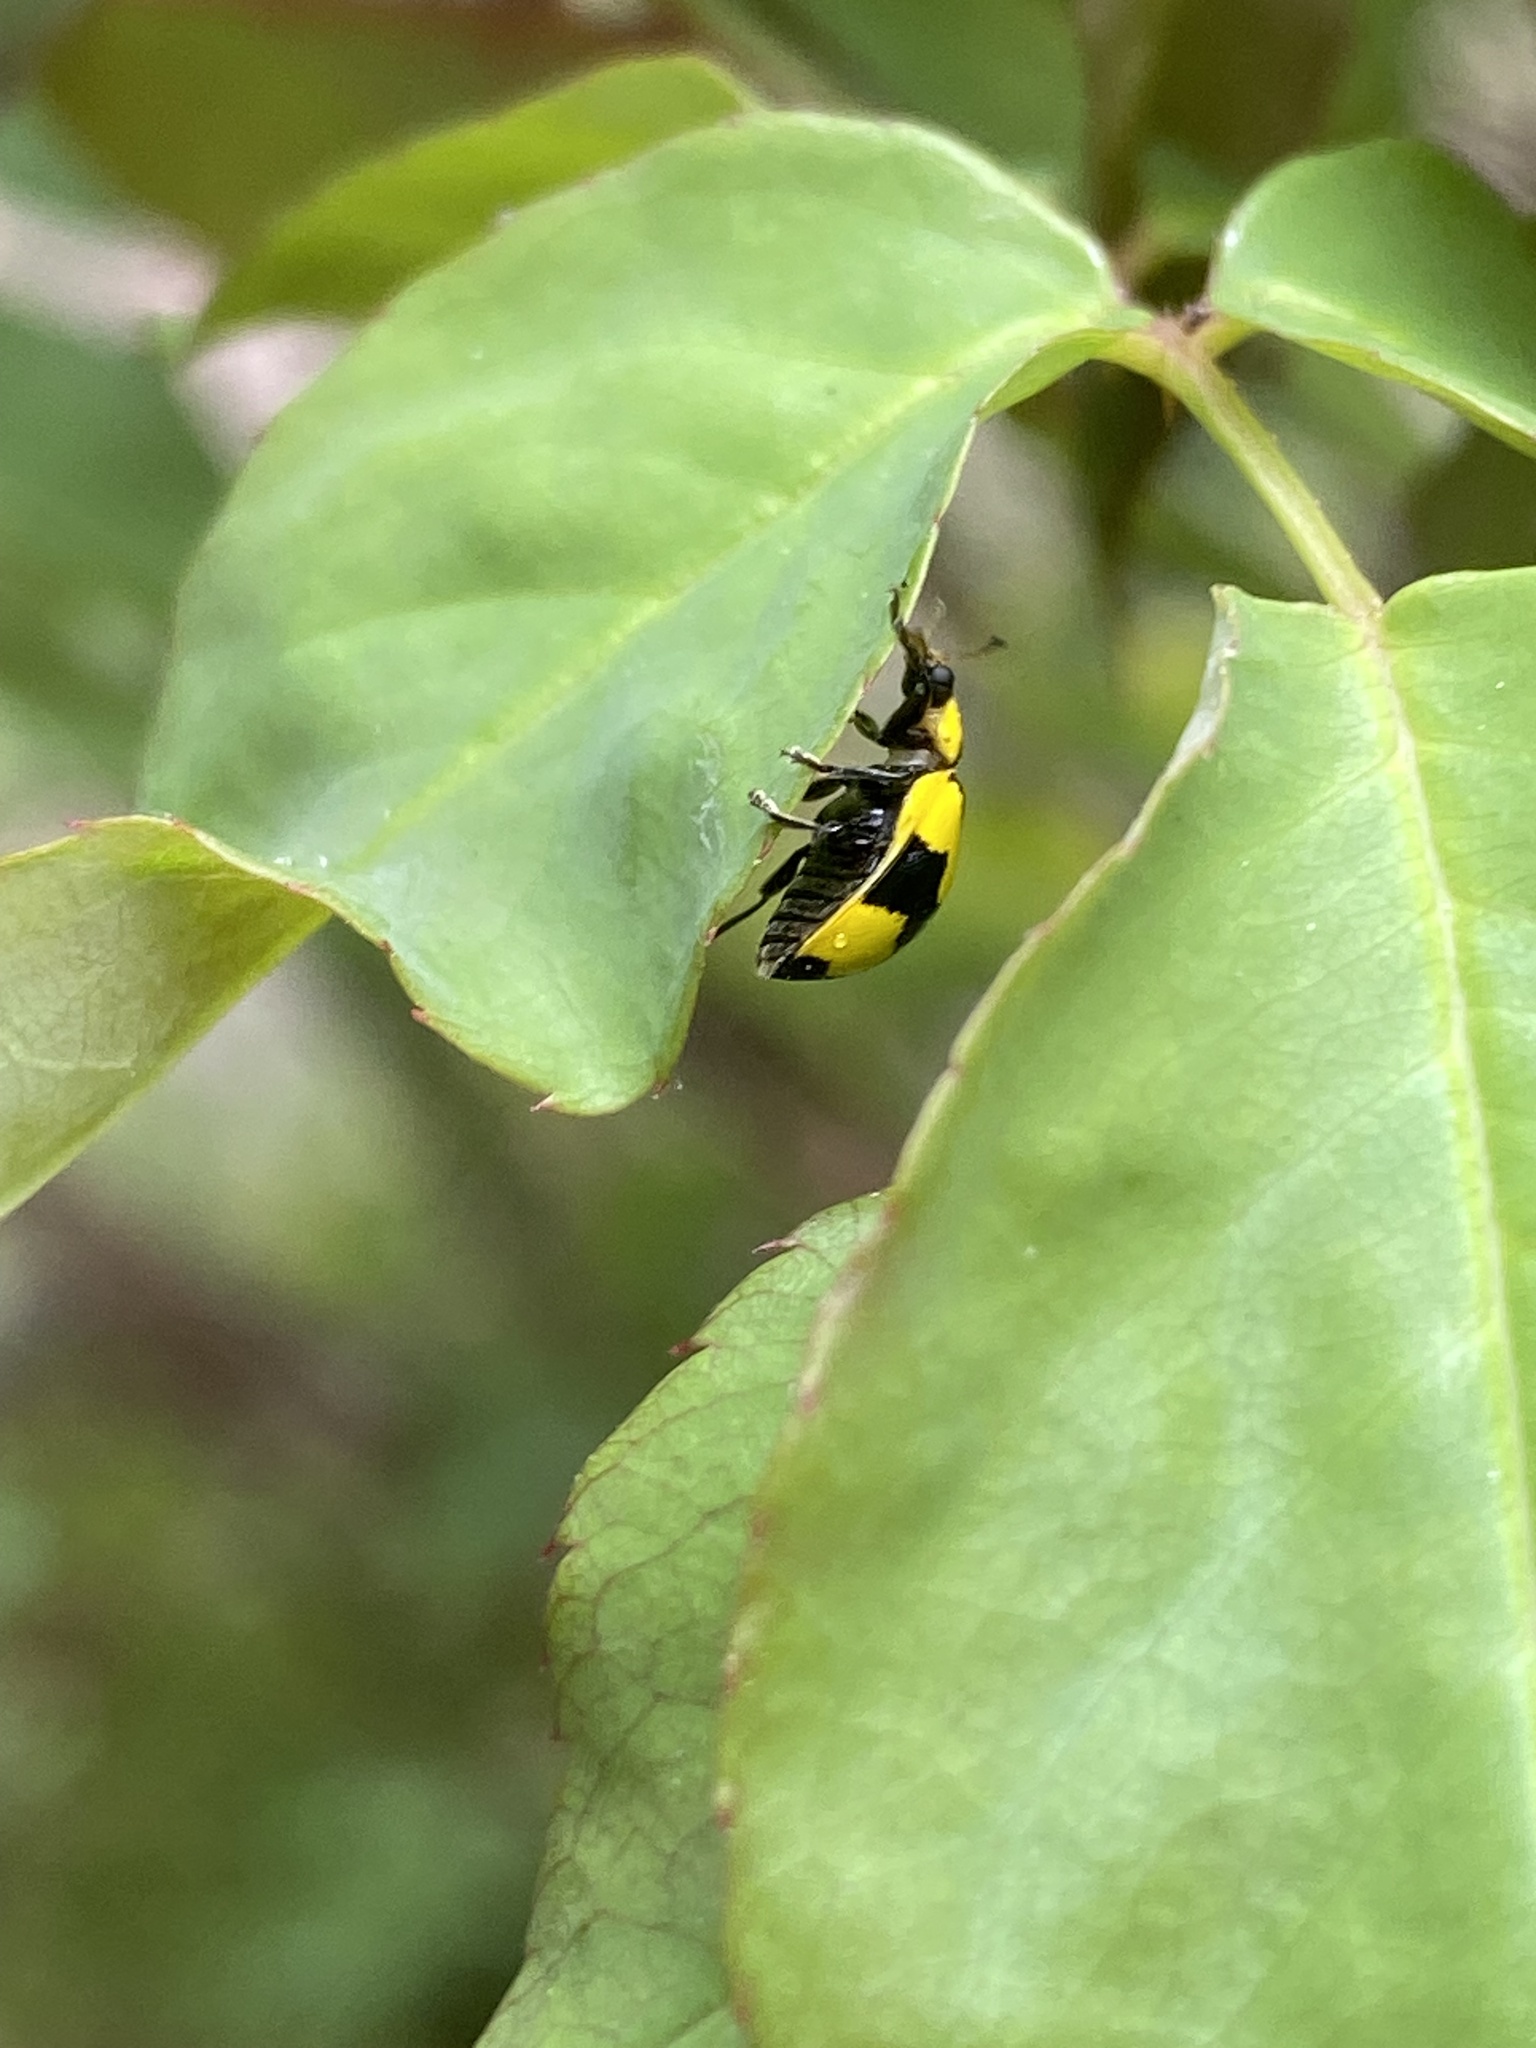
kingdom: Animalia
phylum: Arthropoda
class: Insecta
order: Coleoptera
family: Coccinellidae
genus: Illeis
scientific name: Illeis galbula
